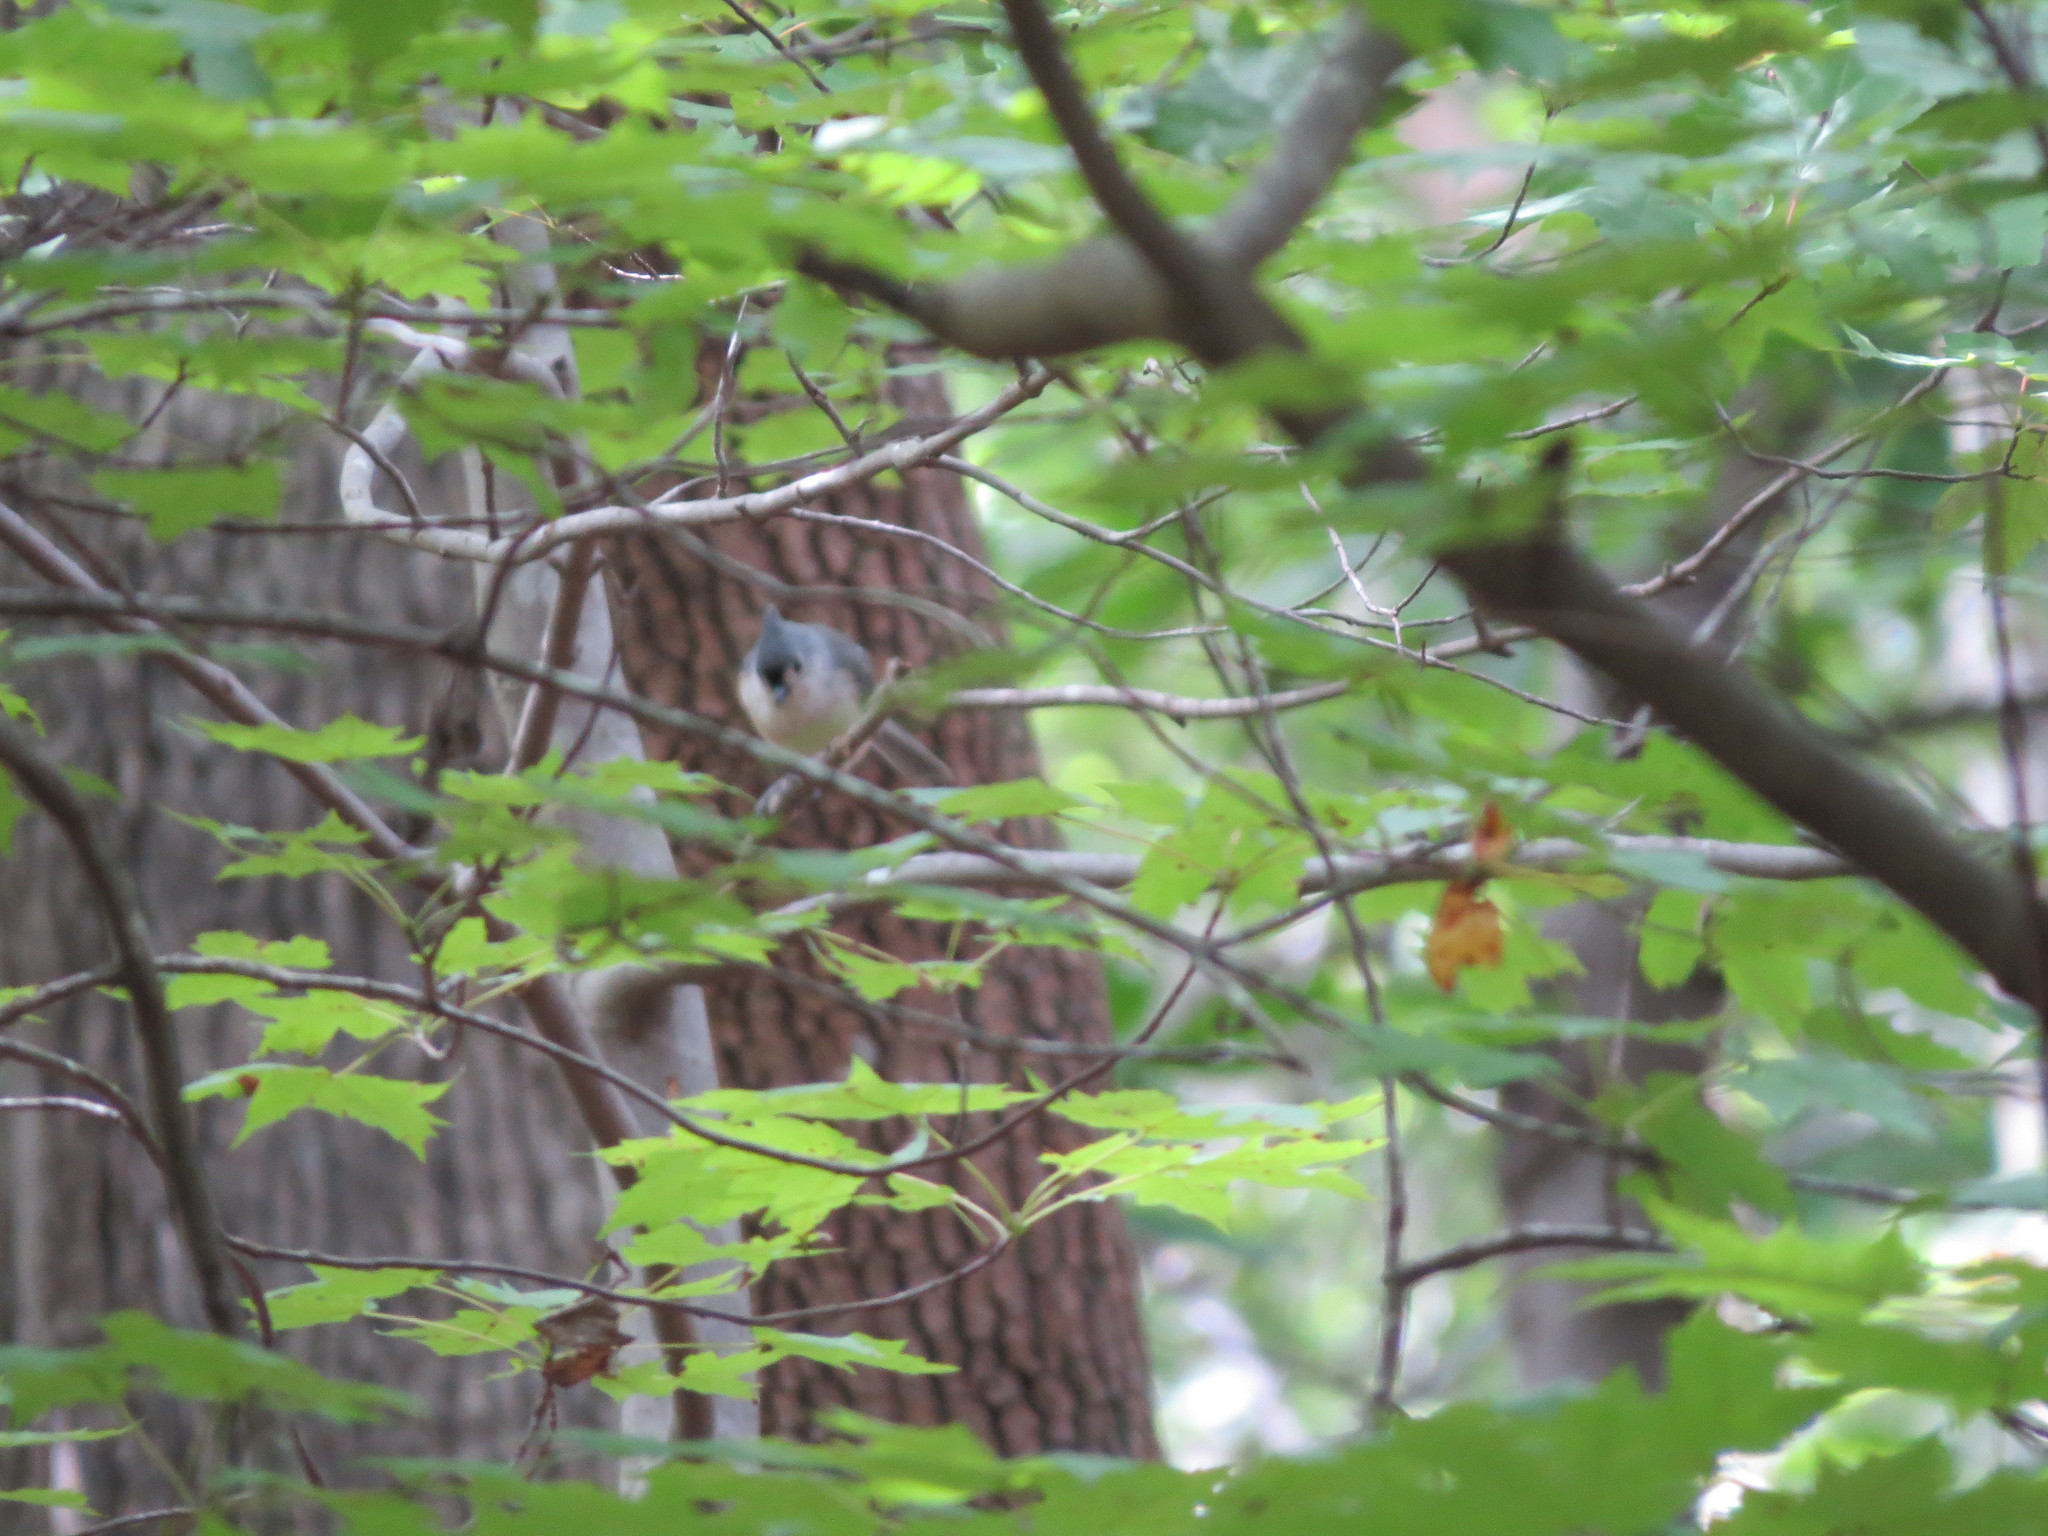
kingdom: Animalia
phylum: Chordata
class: Aves
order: Passeriformes
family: Paridae
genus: Baeolophus
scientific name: Baeolophus bicolor
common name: Tufted titmouse
